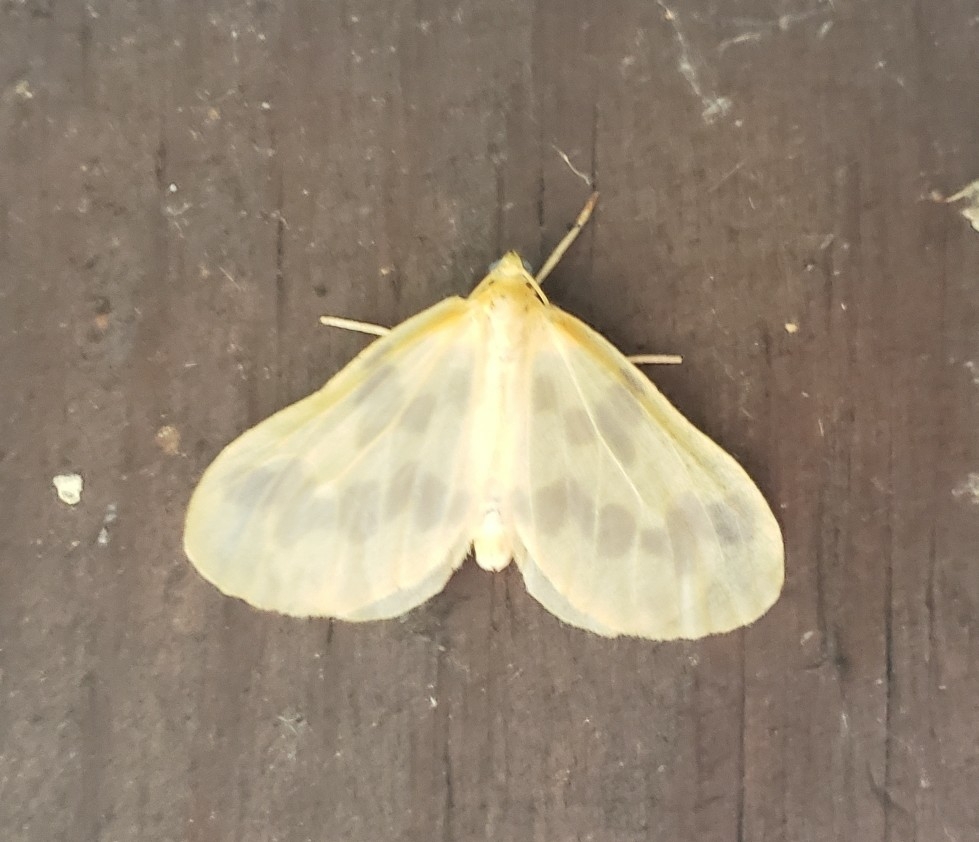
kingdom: Animalia
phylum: Arthropoda
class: Insecta
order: Lepidoptera
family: Geometridae
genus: Eubaphe
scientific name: Eubaphe mendica
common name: Beggar
